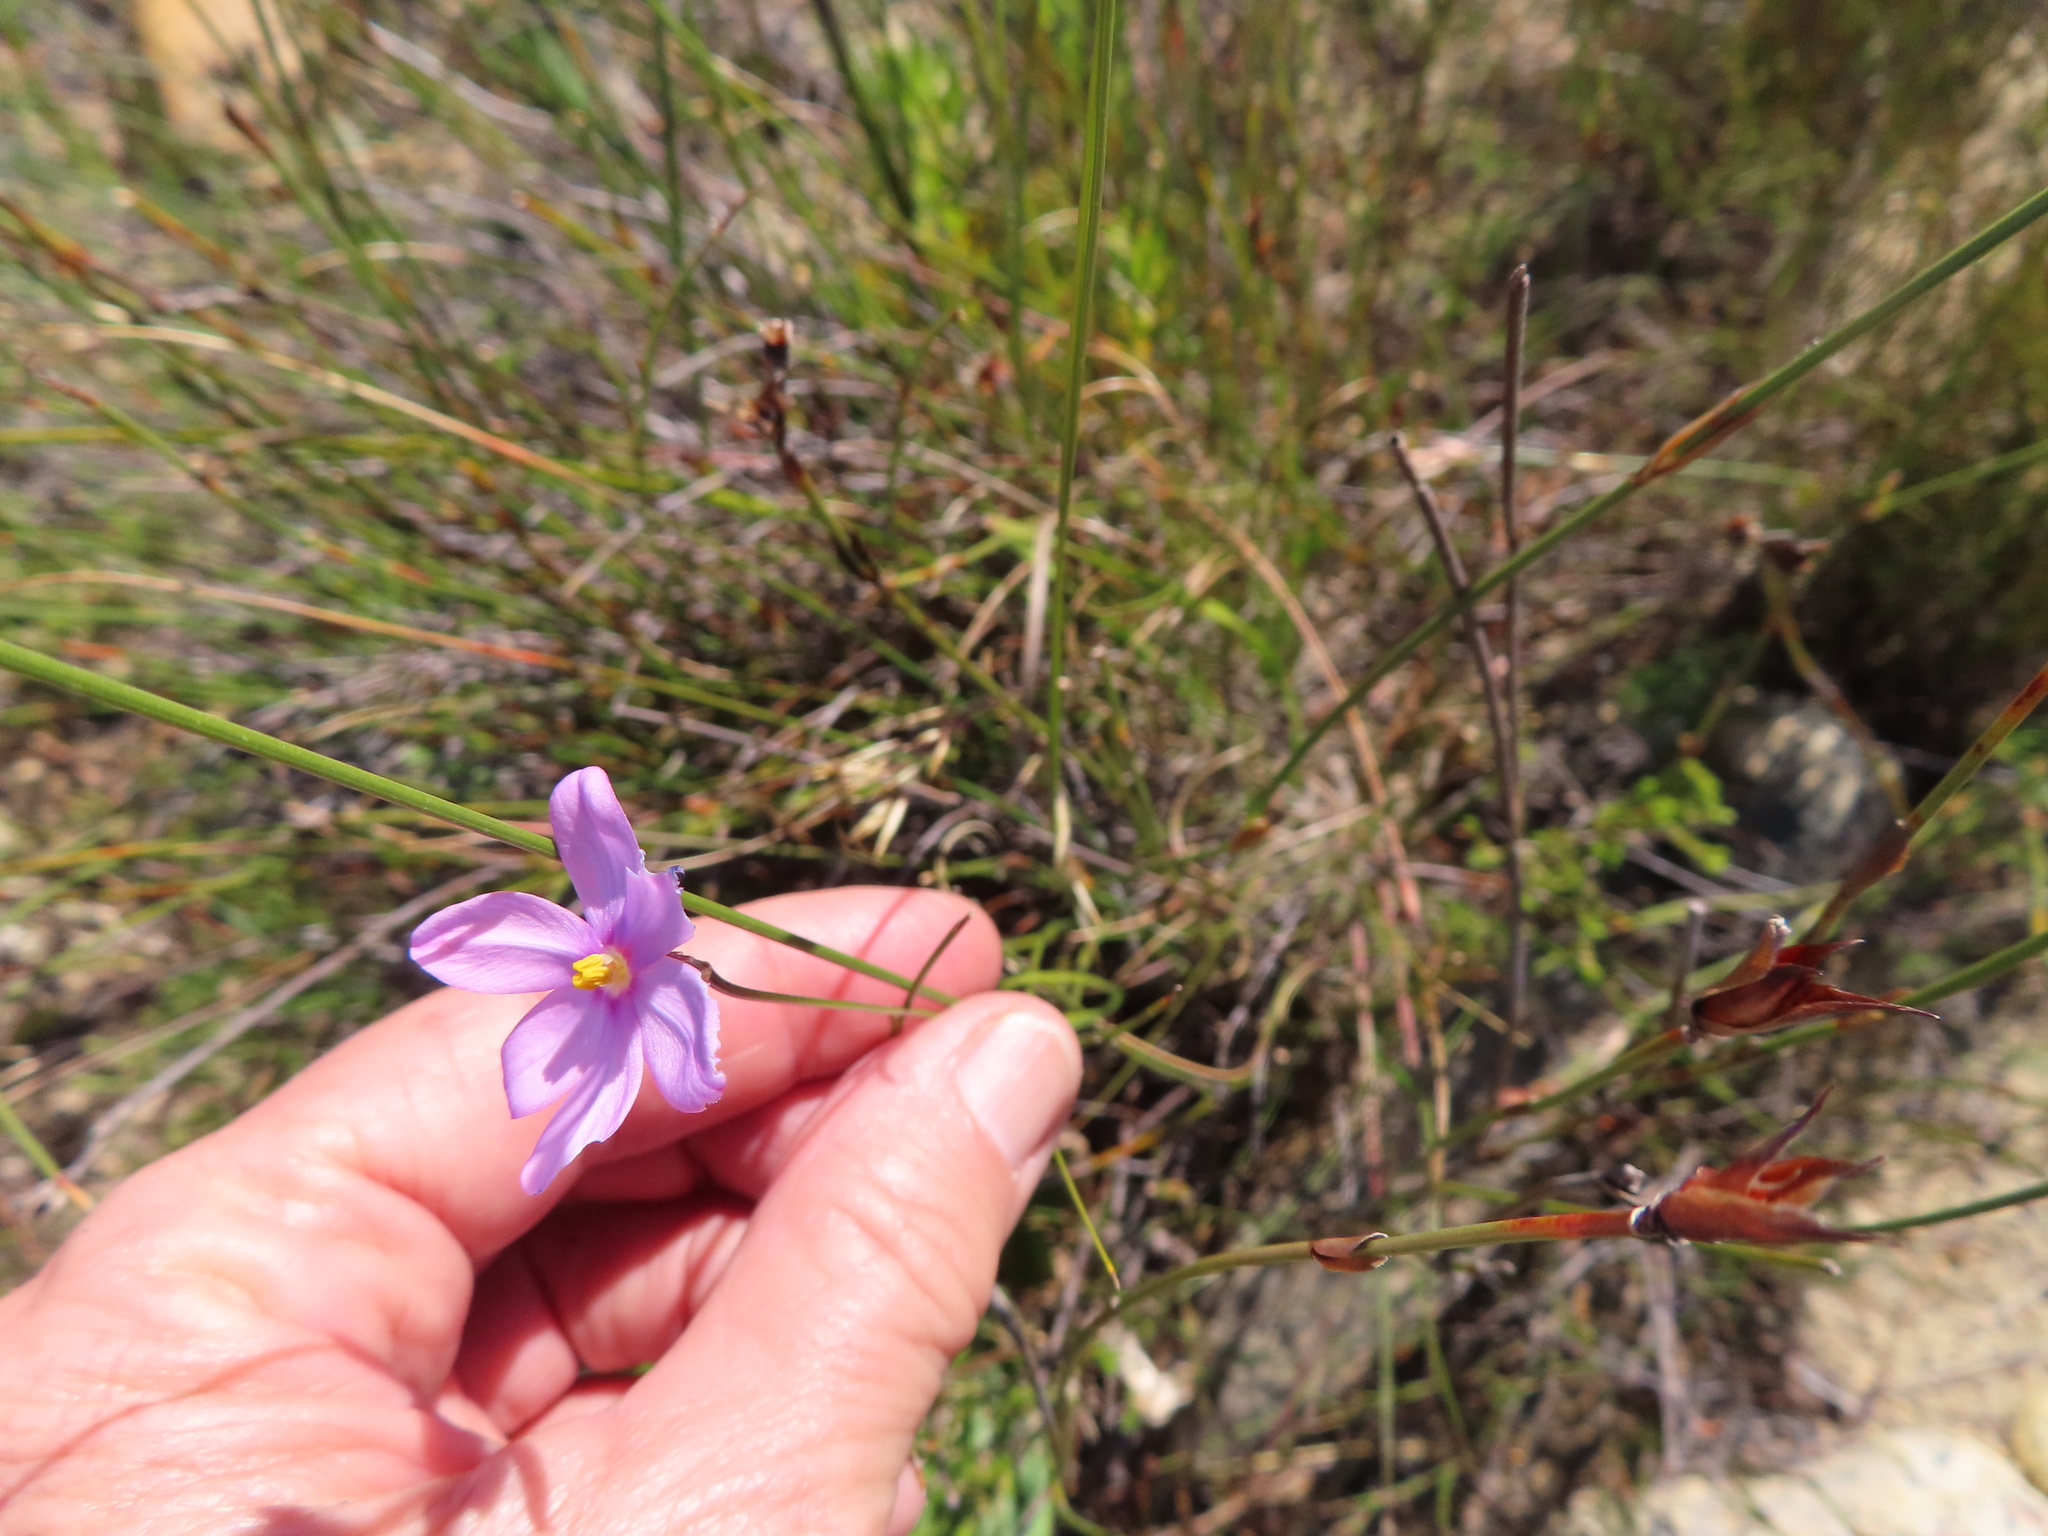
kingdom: Plantae
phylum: Tracheophyta
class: Liliopsida
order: Asparagales
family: Iridaceae
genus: Ixia
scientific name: Ixia micrandra
